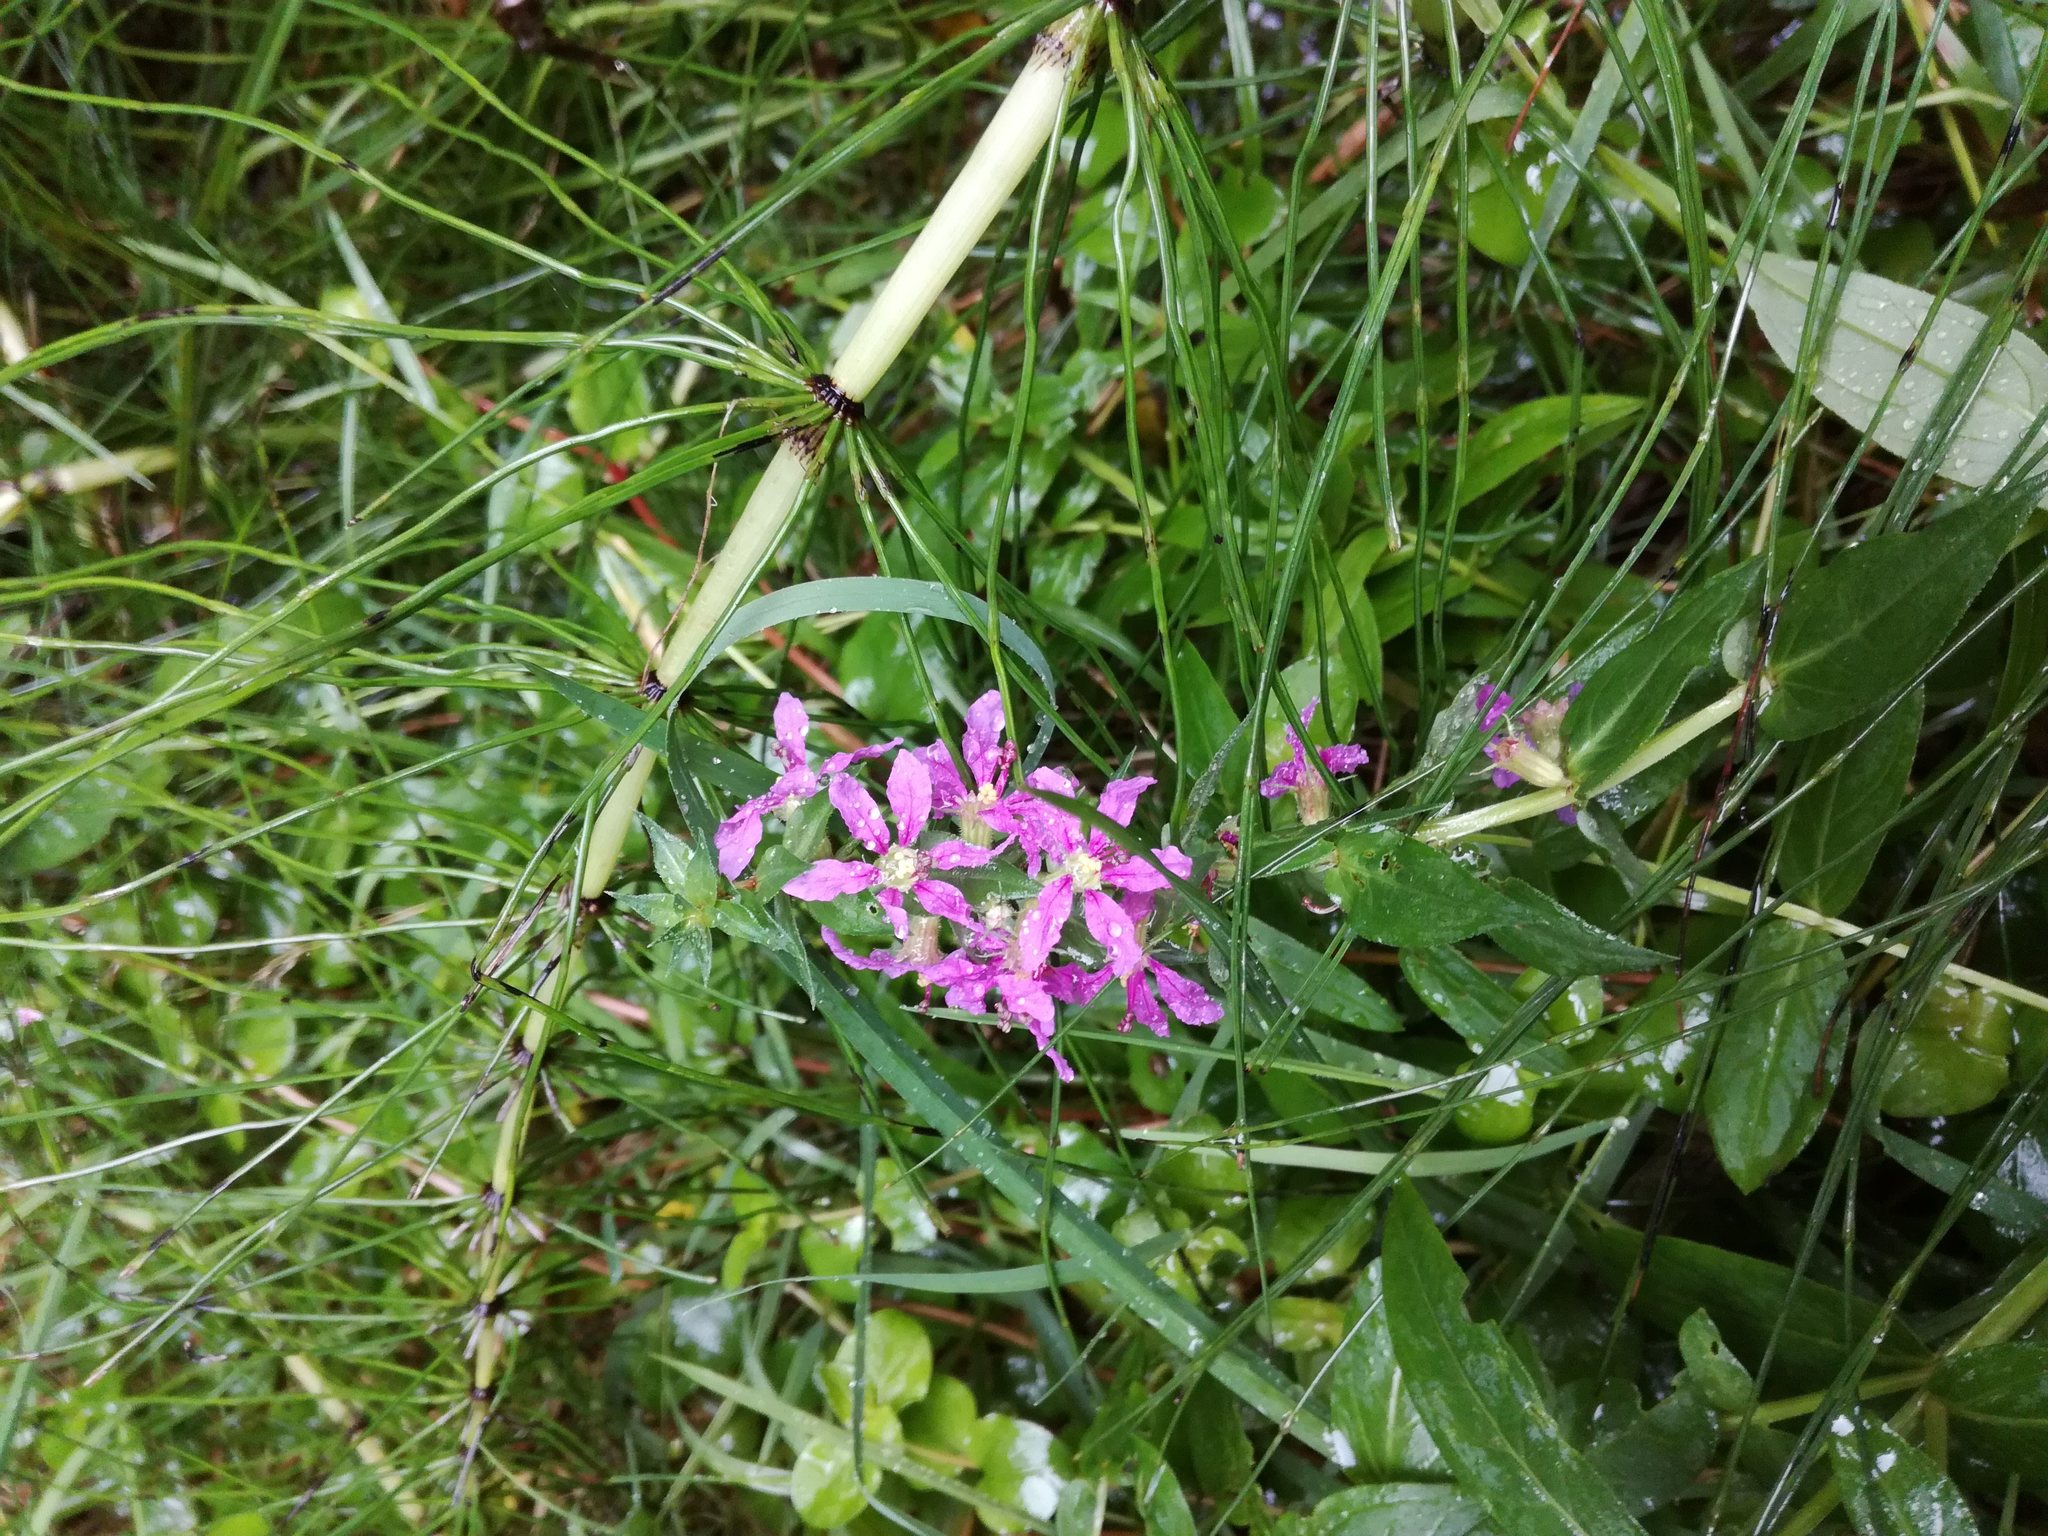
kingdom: Plantae
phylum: Tracheophyta
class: Magnoliopsida
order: Myrtales
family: Lythraceae
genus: Lythrum
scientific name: Lythrum salicaria
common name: Purple loosestrife
